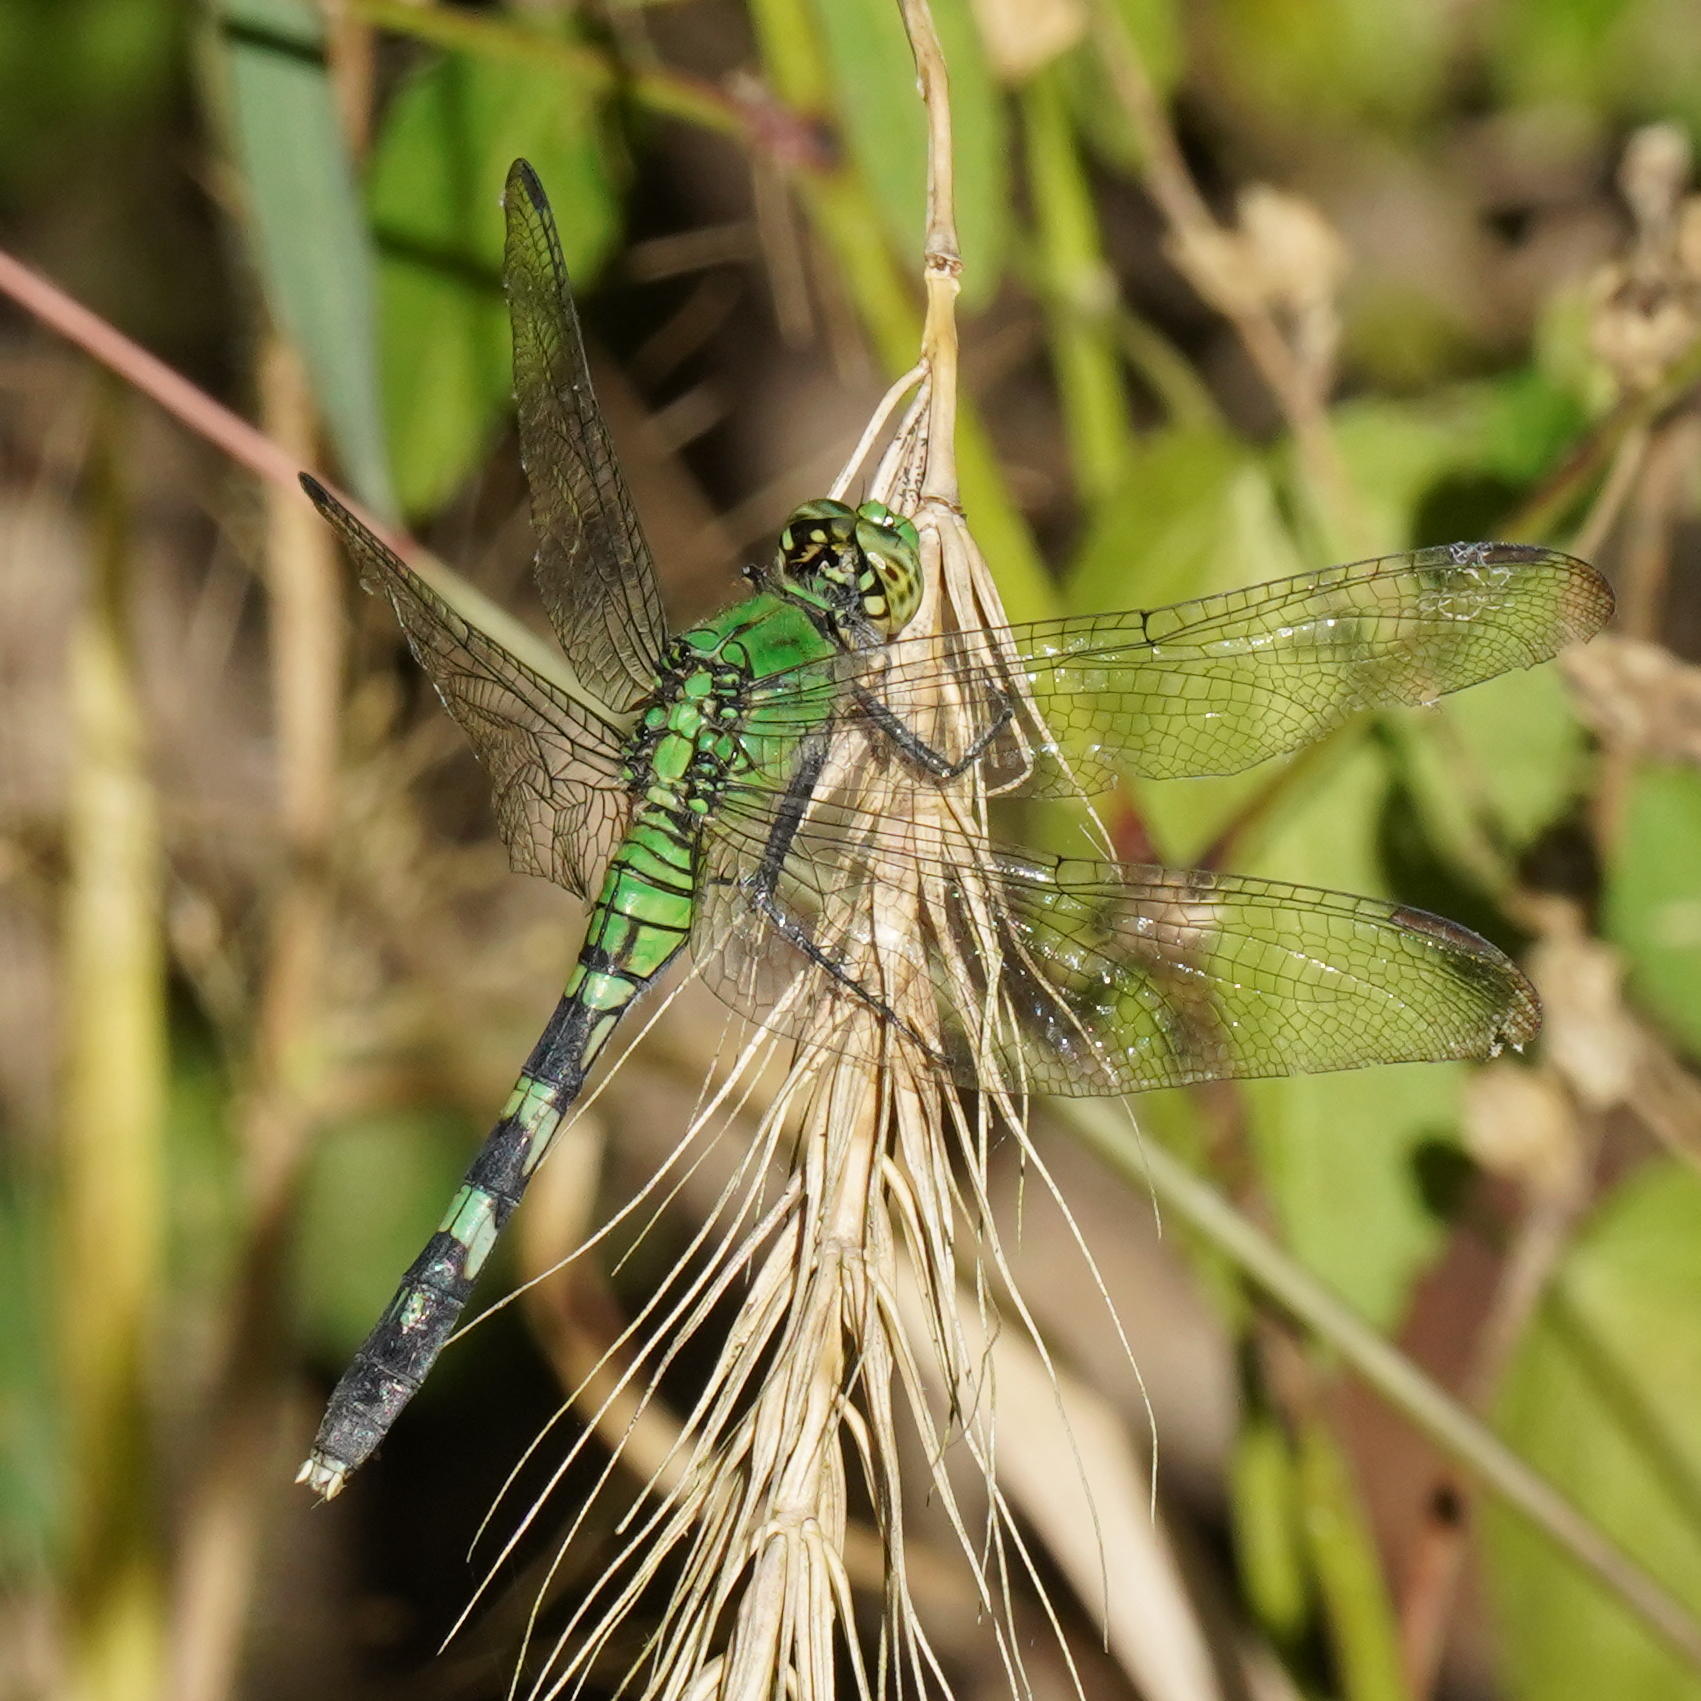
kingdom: Animalia
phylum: Arthropoda
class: Insecta
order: Odonata
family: Libellulidae
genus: Erythemis
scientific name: Erythemis simplicicollis
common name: Eastern pondhawk
